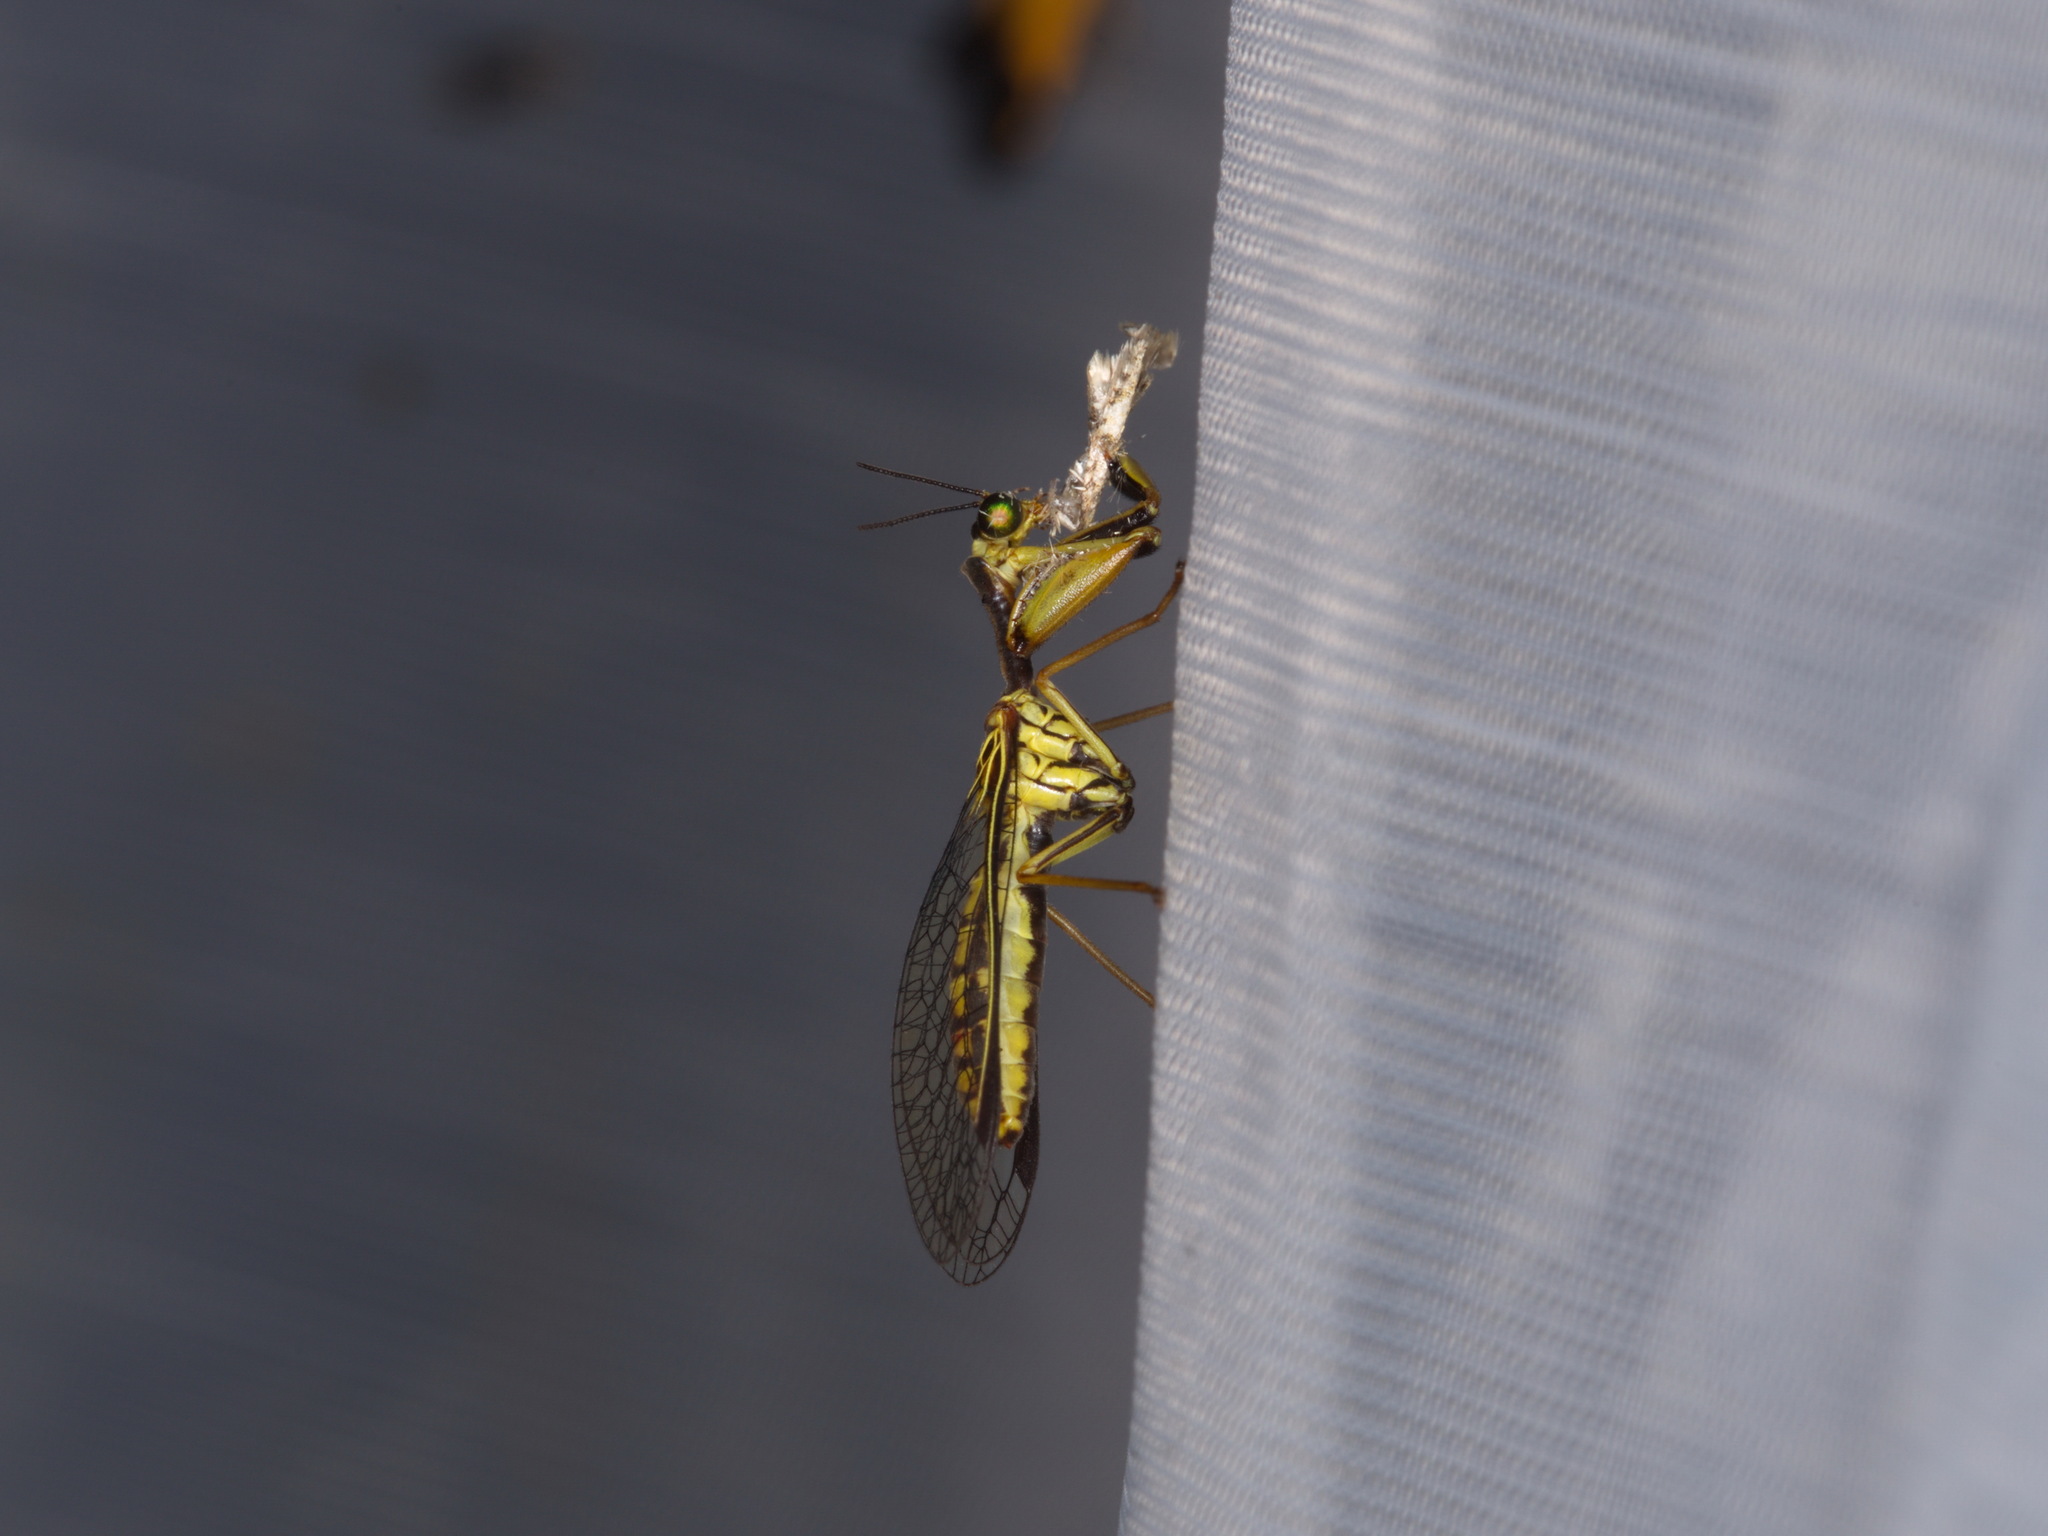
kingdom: Animalia
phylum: Arthropoda
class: Insecta
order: Neuroptera
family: Mantispidae
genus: Spaminta
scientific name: Spaminta minjerribae
